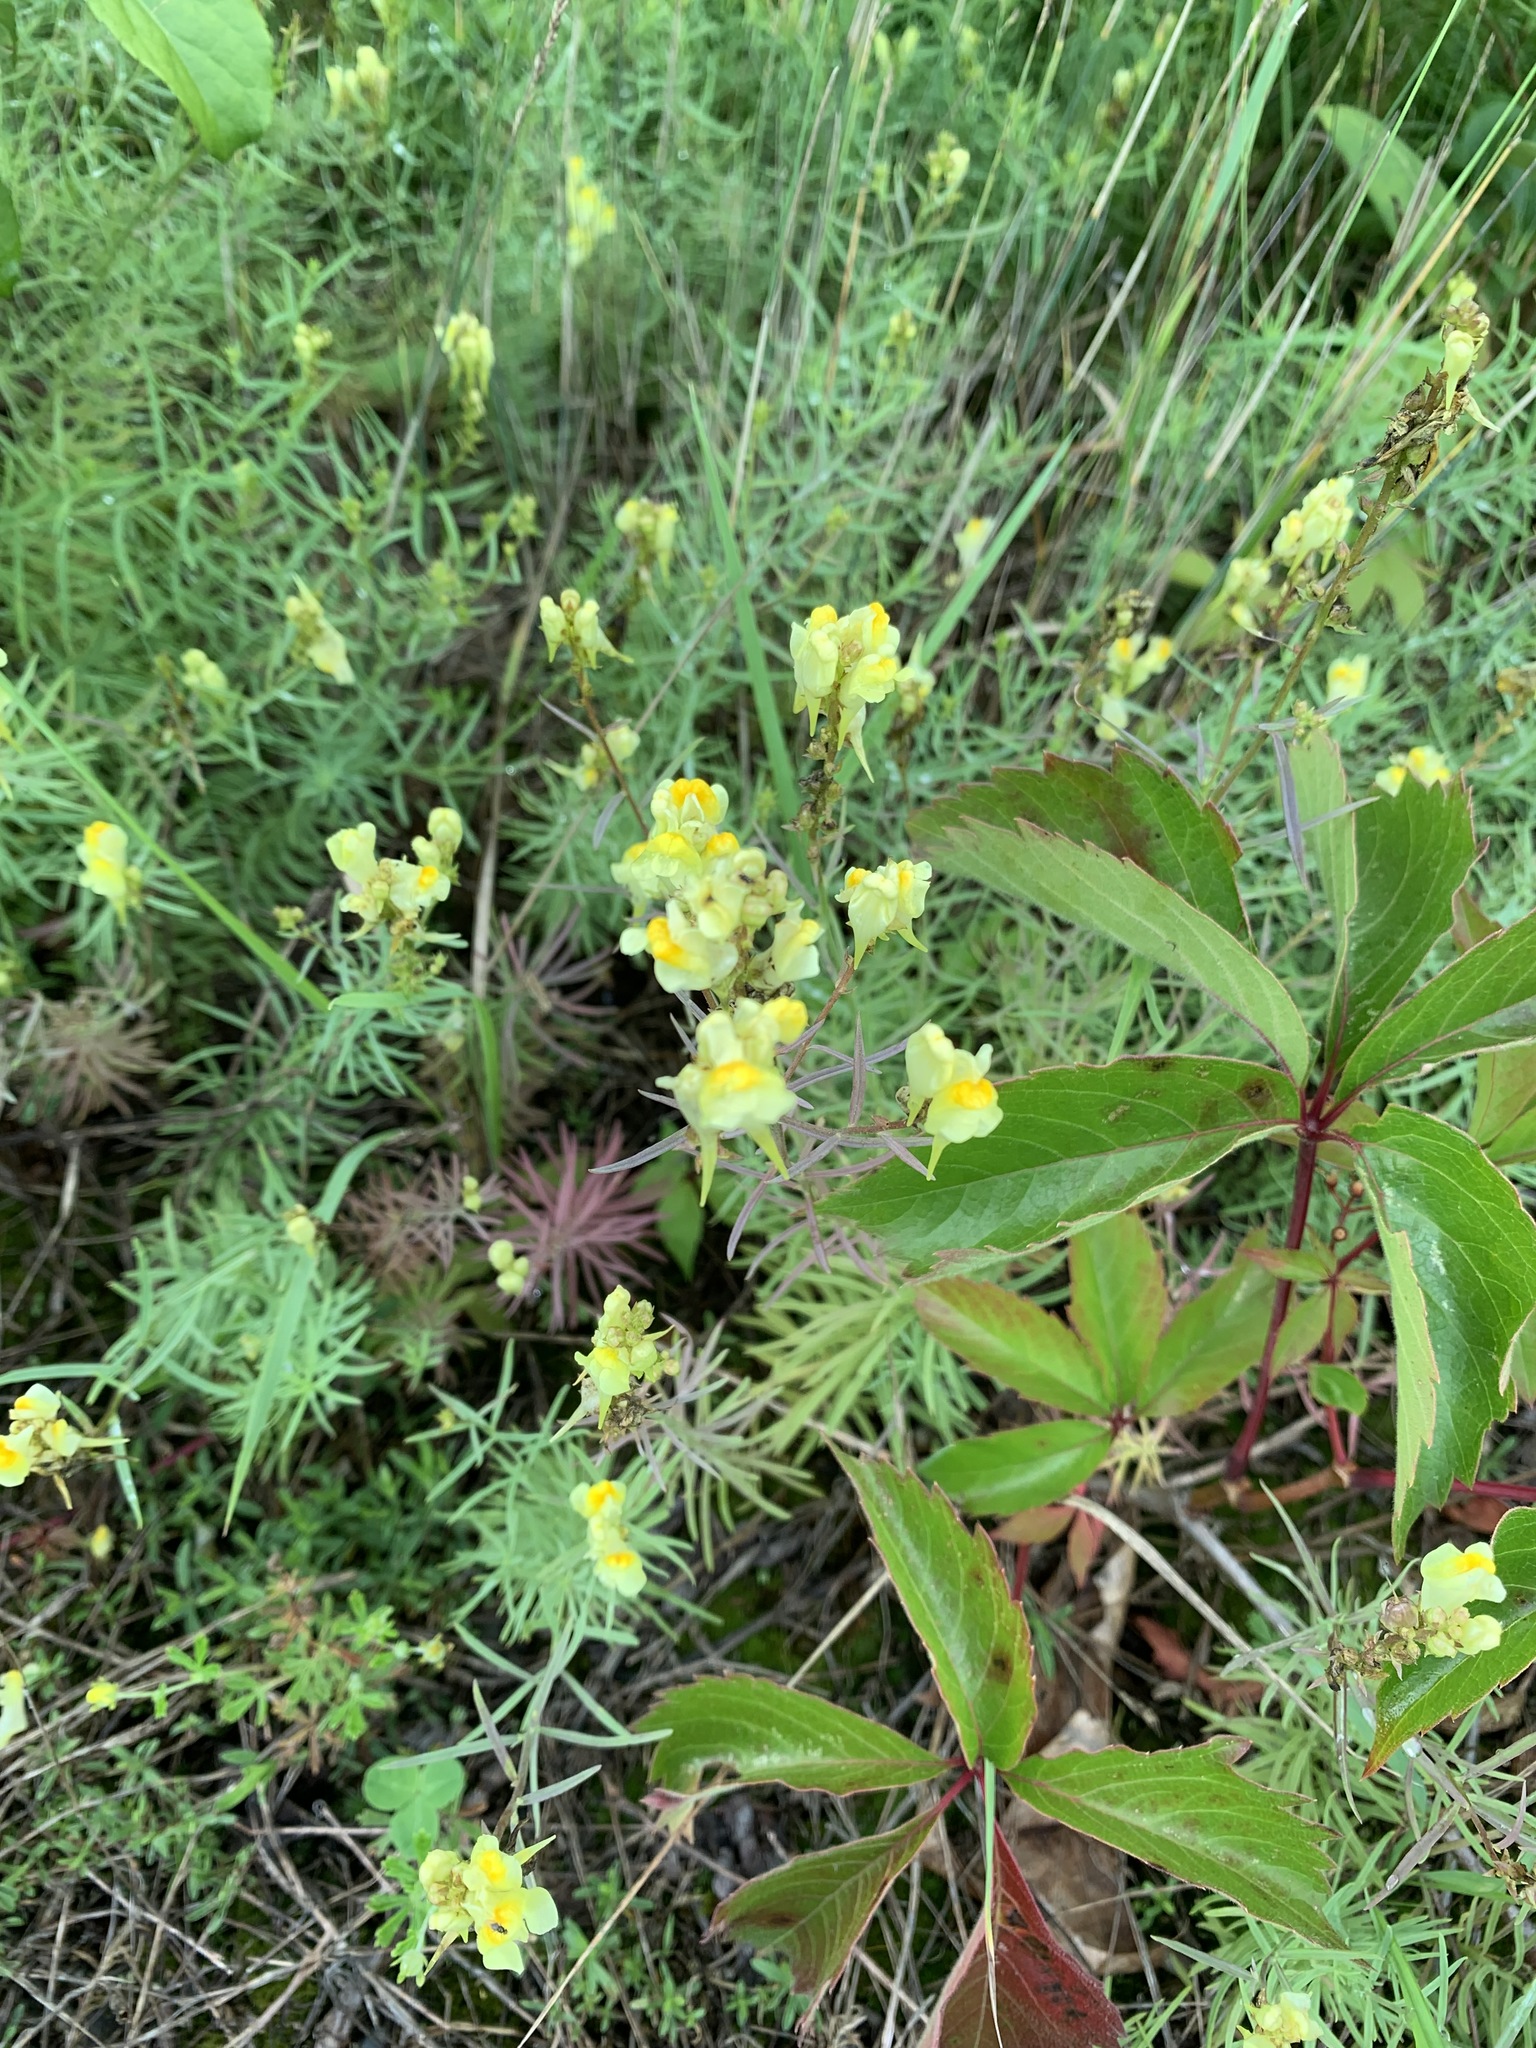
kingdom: Plantae
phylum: Tracheophyta
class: Magnoliopsida
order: Lamiales
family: Plantaginaceae
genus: Linaria
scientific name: Linaria vulgaris
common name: Butter and eggs
